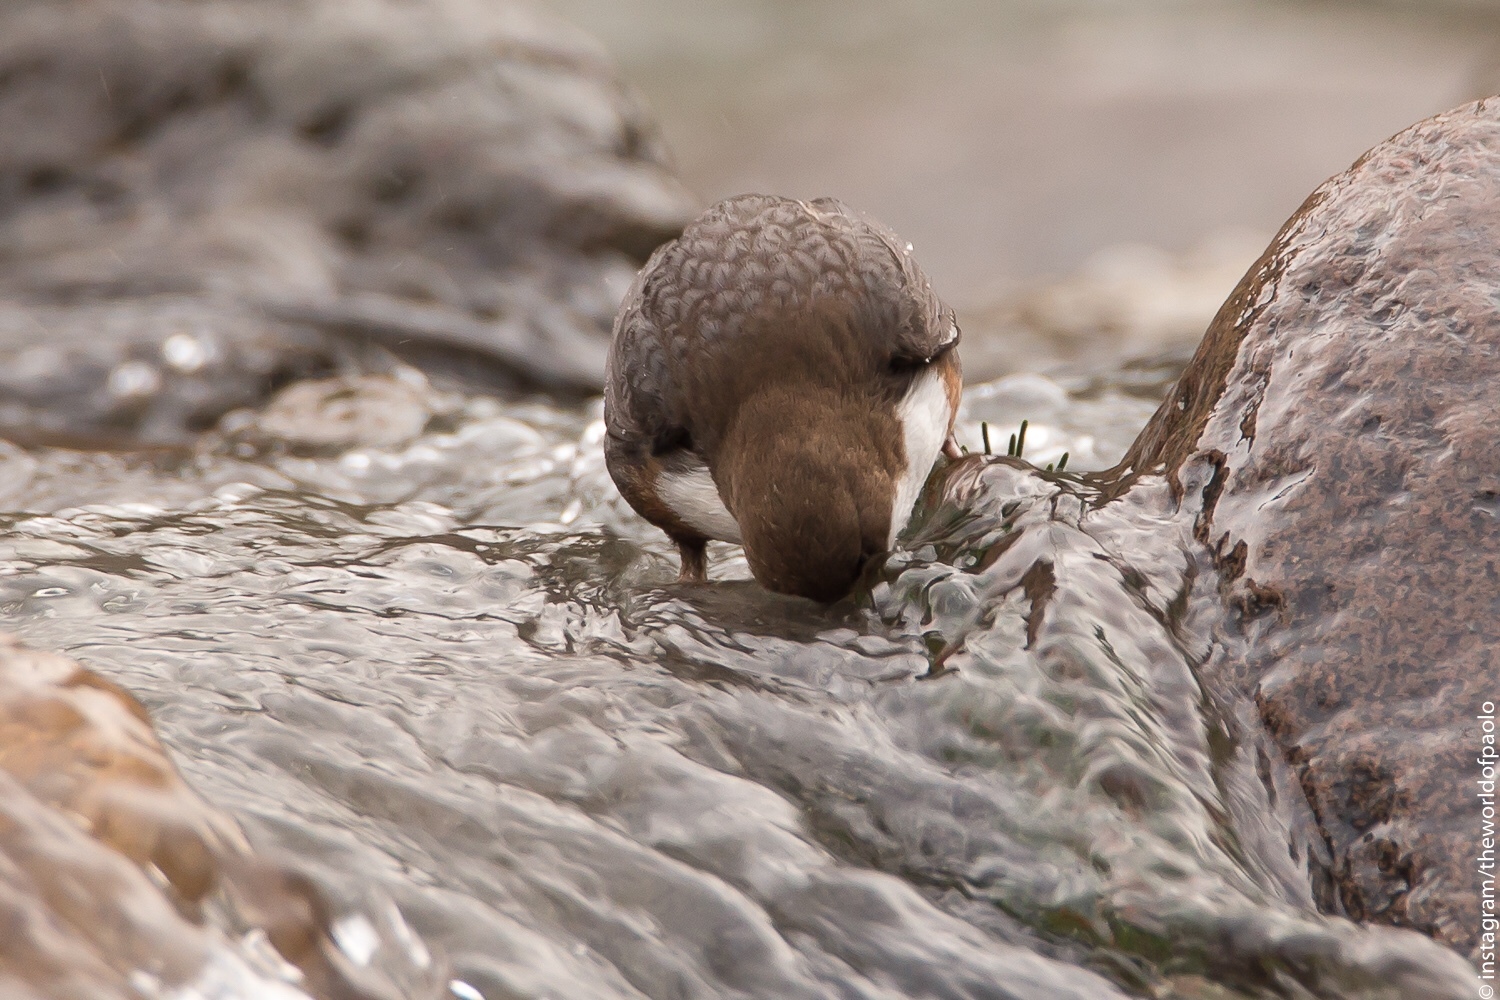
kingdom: Animalia
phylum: Chordata
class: Aves
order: Passeriformes
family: Cinclidae
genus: Cinclus
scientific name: Cinclus cinclus
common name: White-throated dipper
